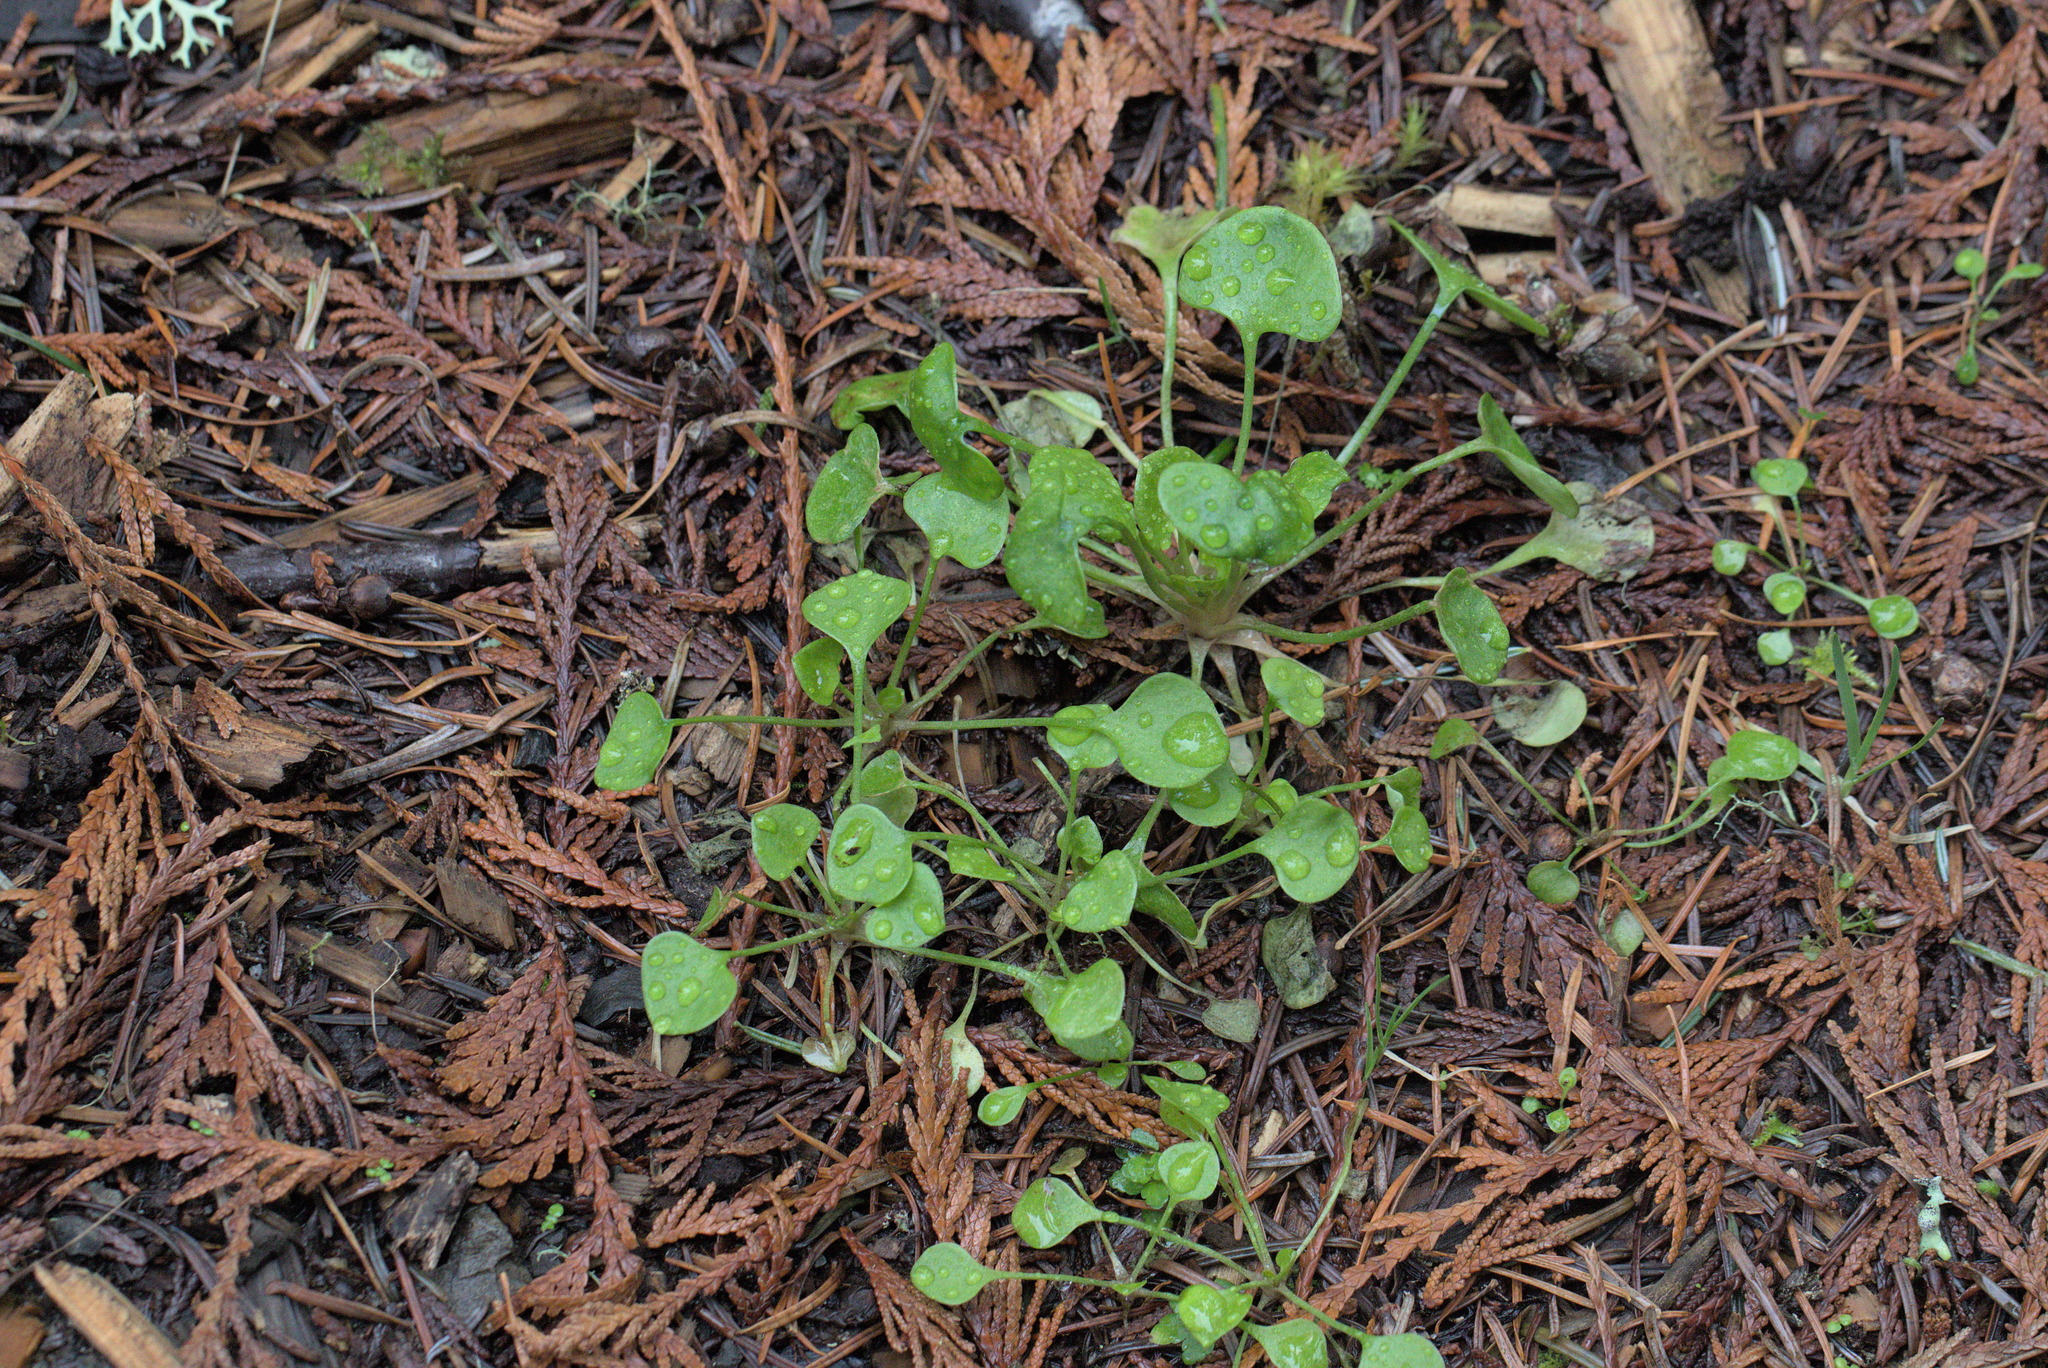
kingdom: Plantae
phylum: Tracheophyta
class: Magnoliopsida
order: Caryophyllales
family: Montiaceae
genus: Claytonia
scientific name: Claytonia perfoliata
